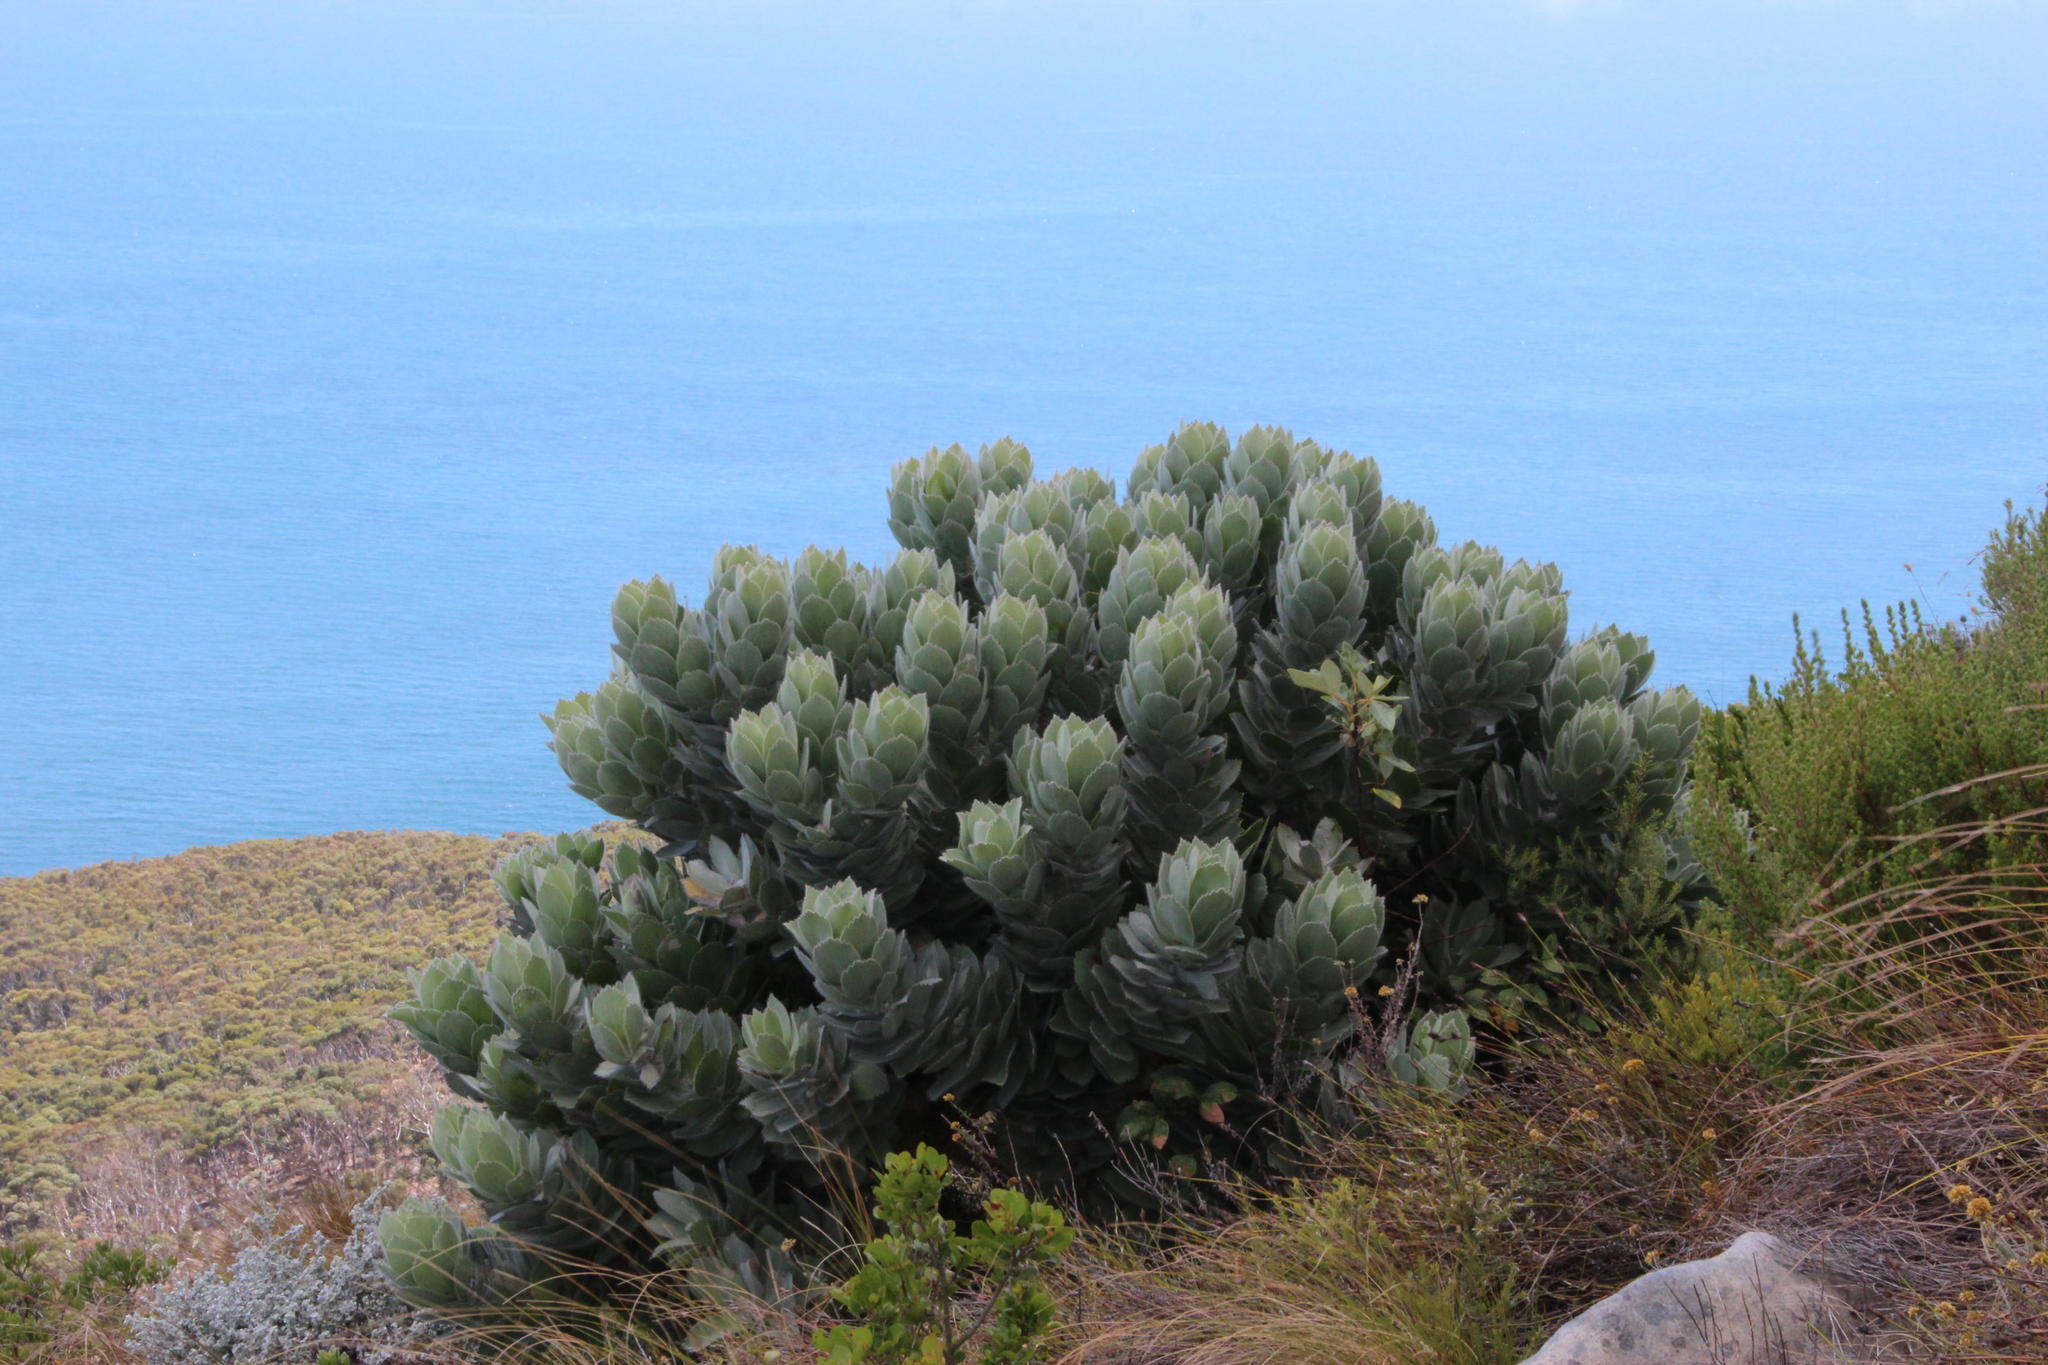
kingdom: Plantae
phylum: Tracheophyta
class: Magnoliopsida
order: Proteales
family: Proteaceae
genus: Leucospermum
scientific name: Leucospermum conocarpodendron
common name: Tree pincushion
